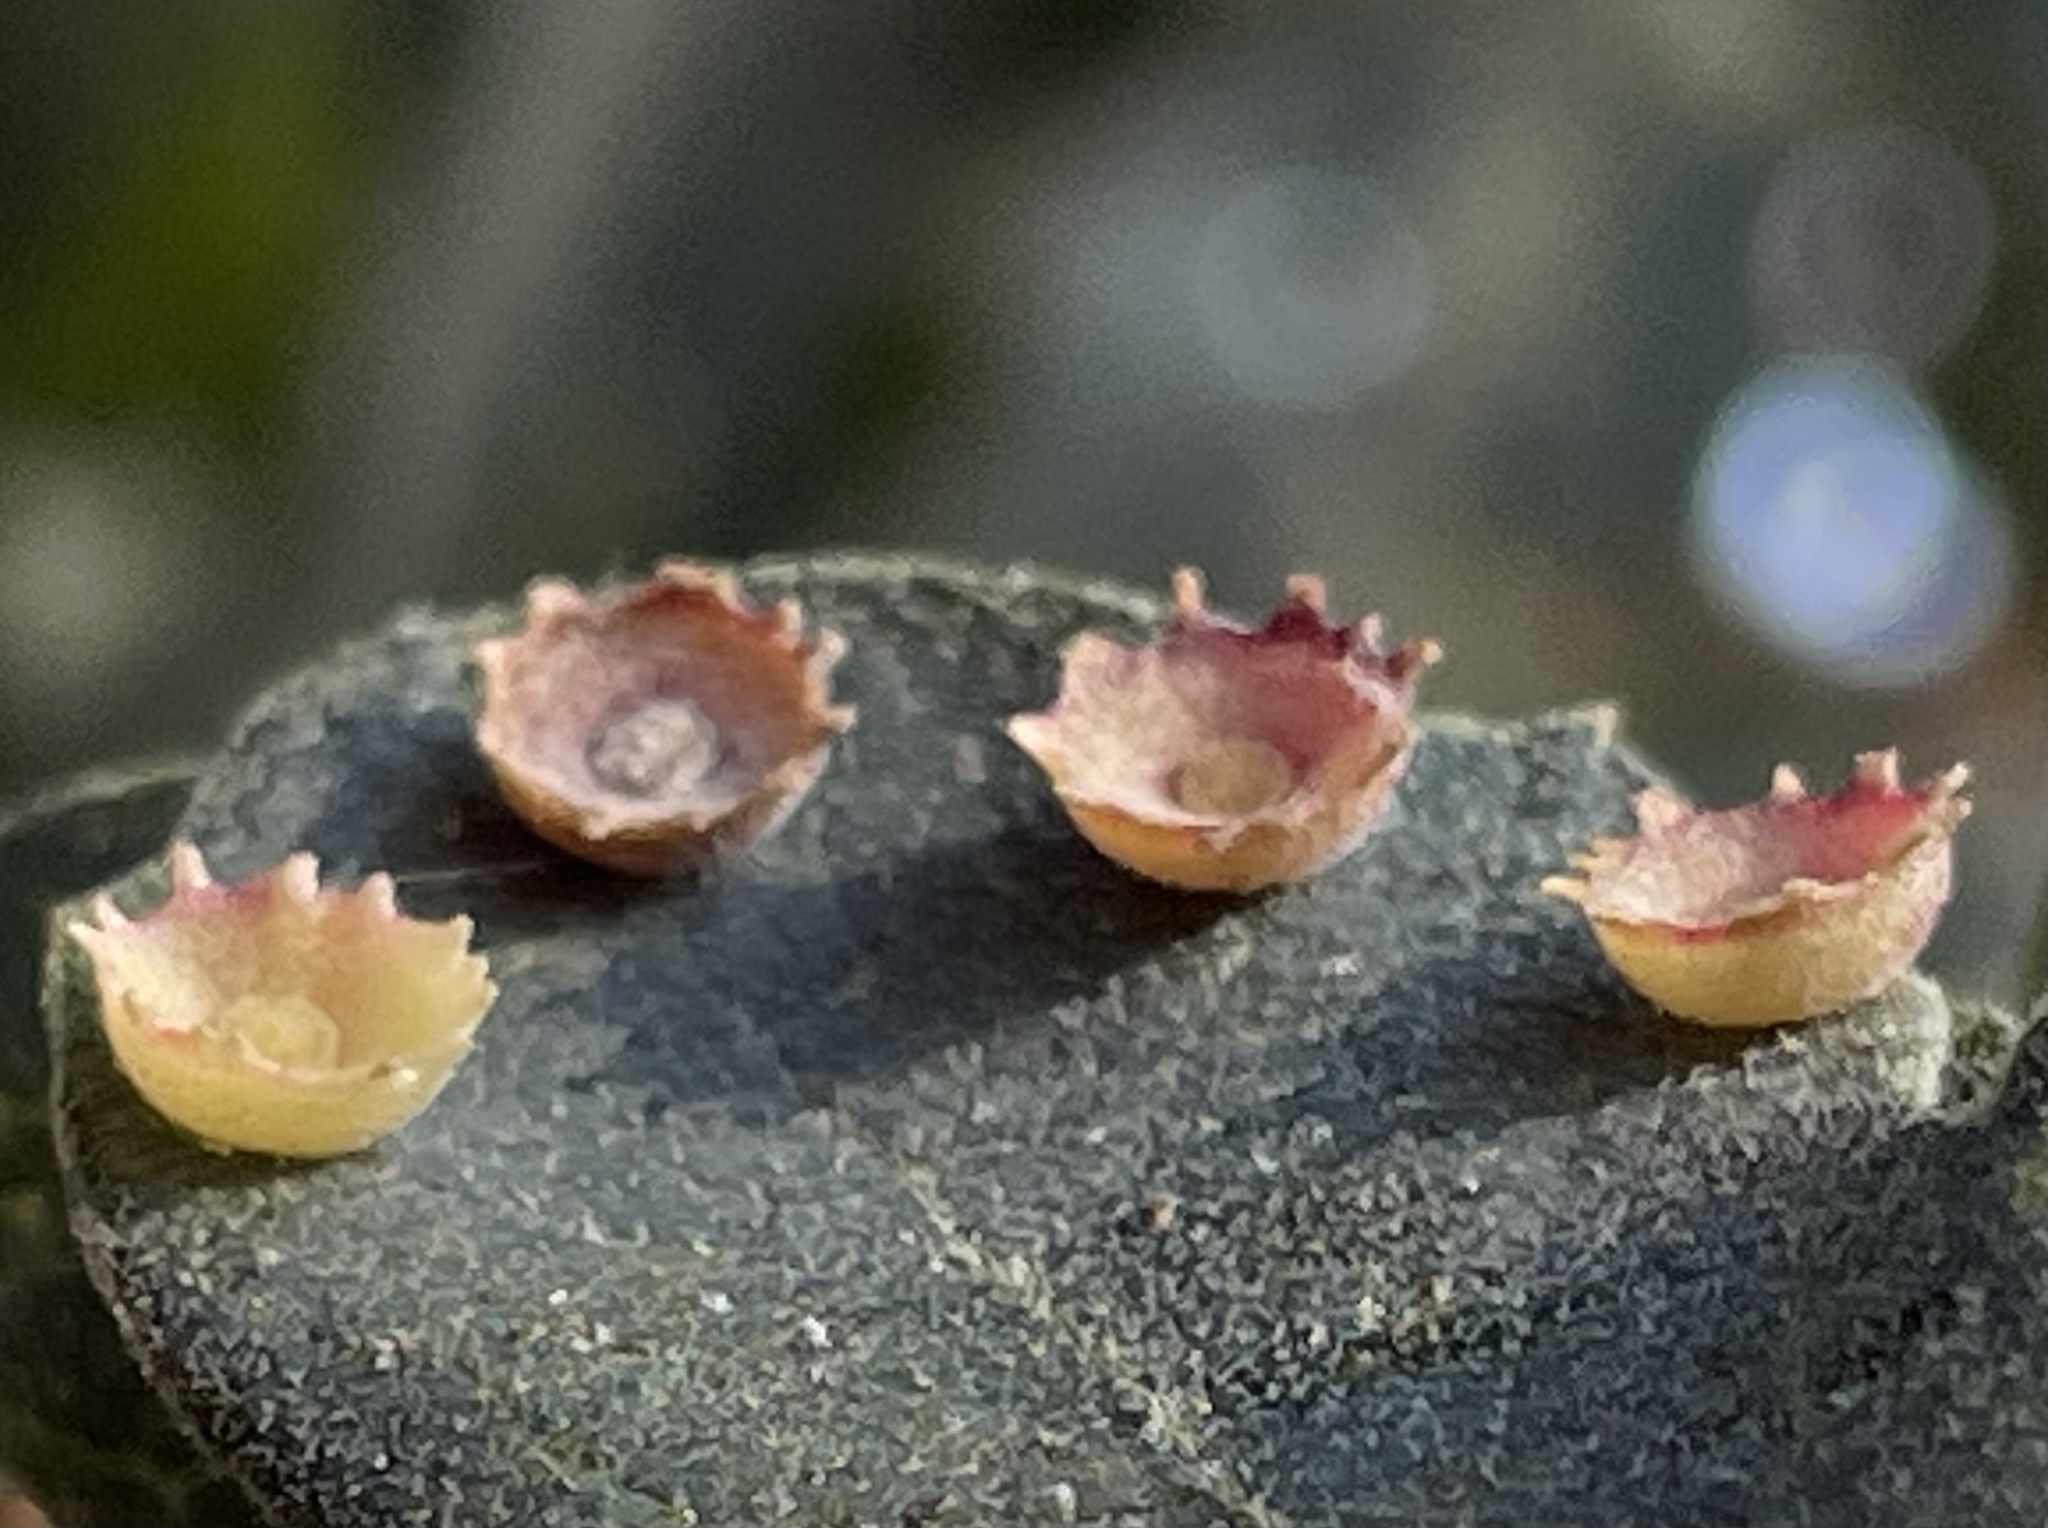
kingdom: Animalia
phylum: Arthropoda
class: Insecta
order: Hymenoptera
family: Cynipidae
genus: Andricus
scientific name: Andricus
